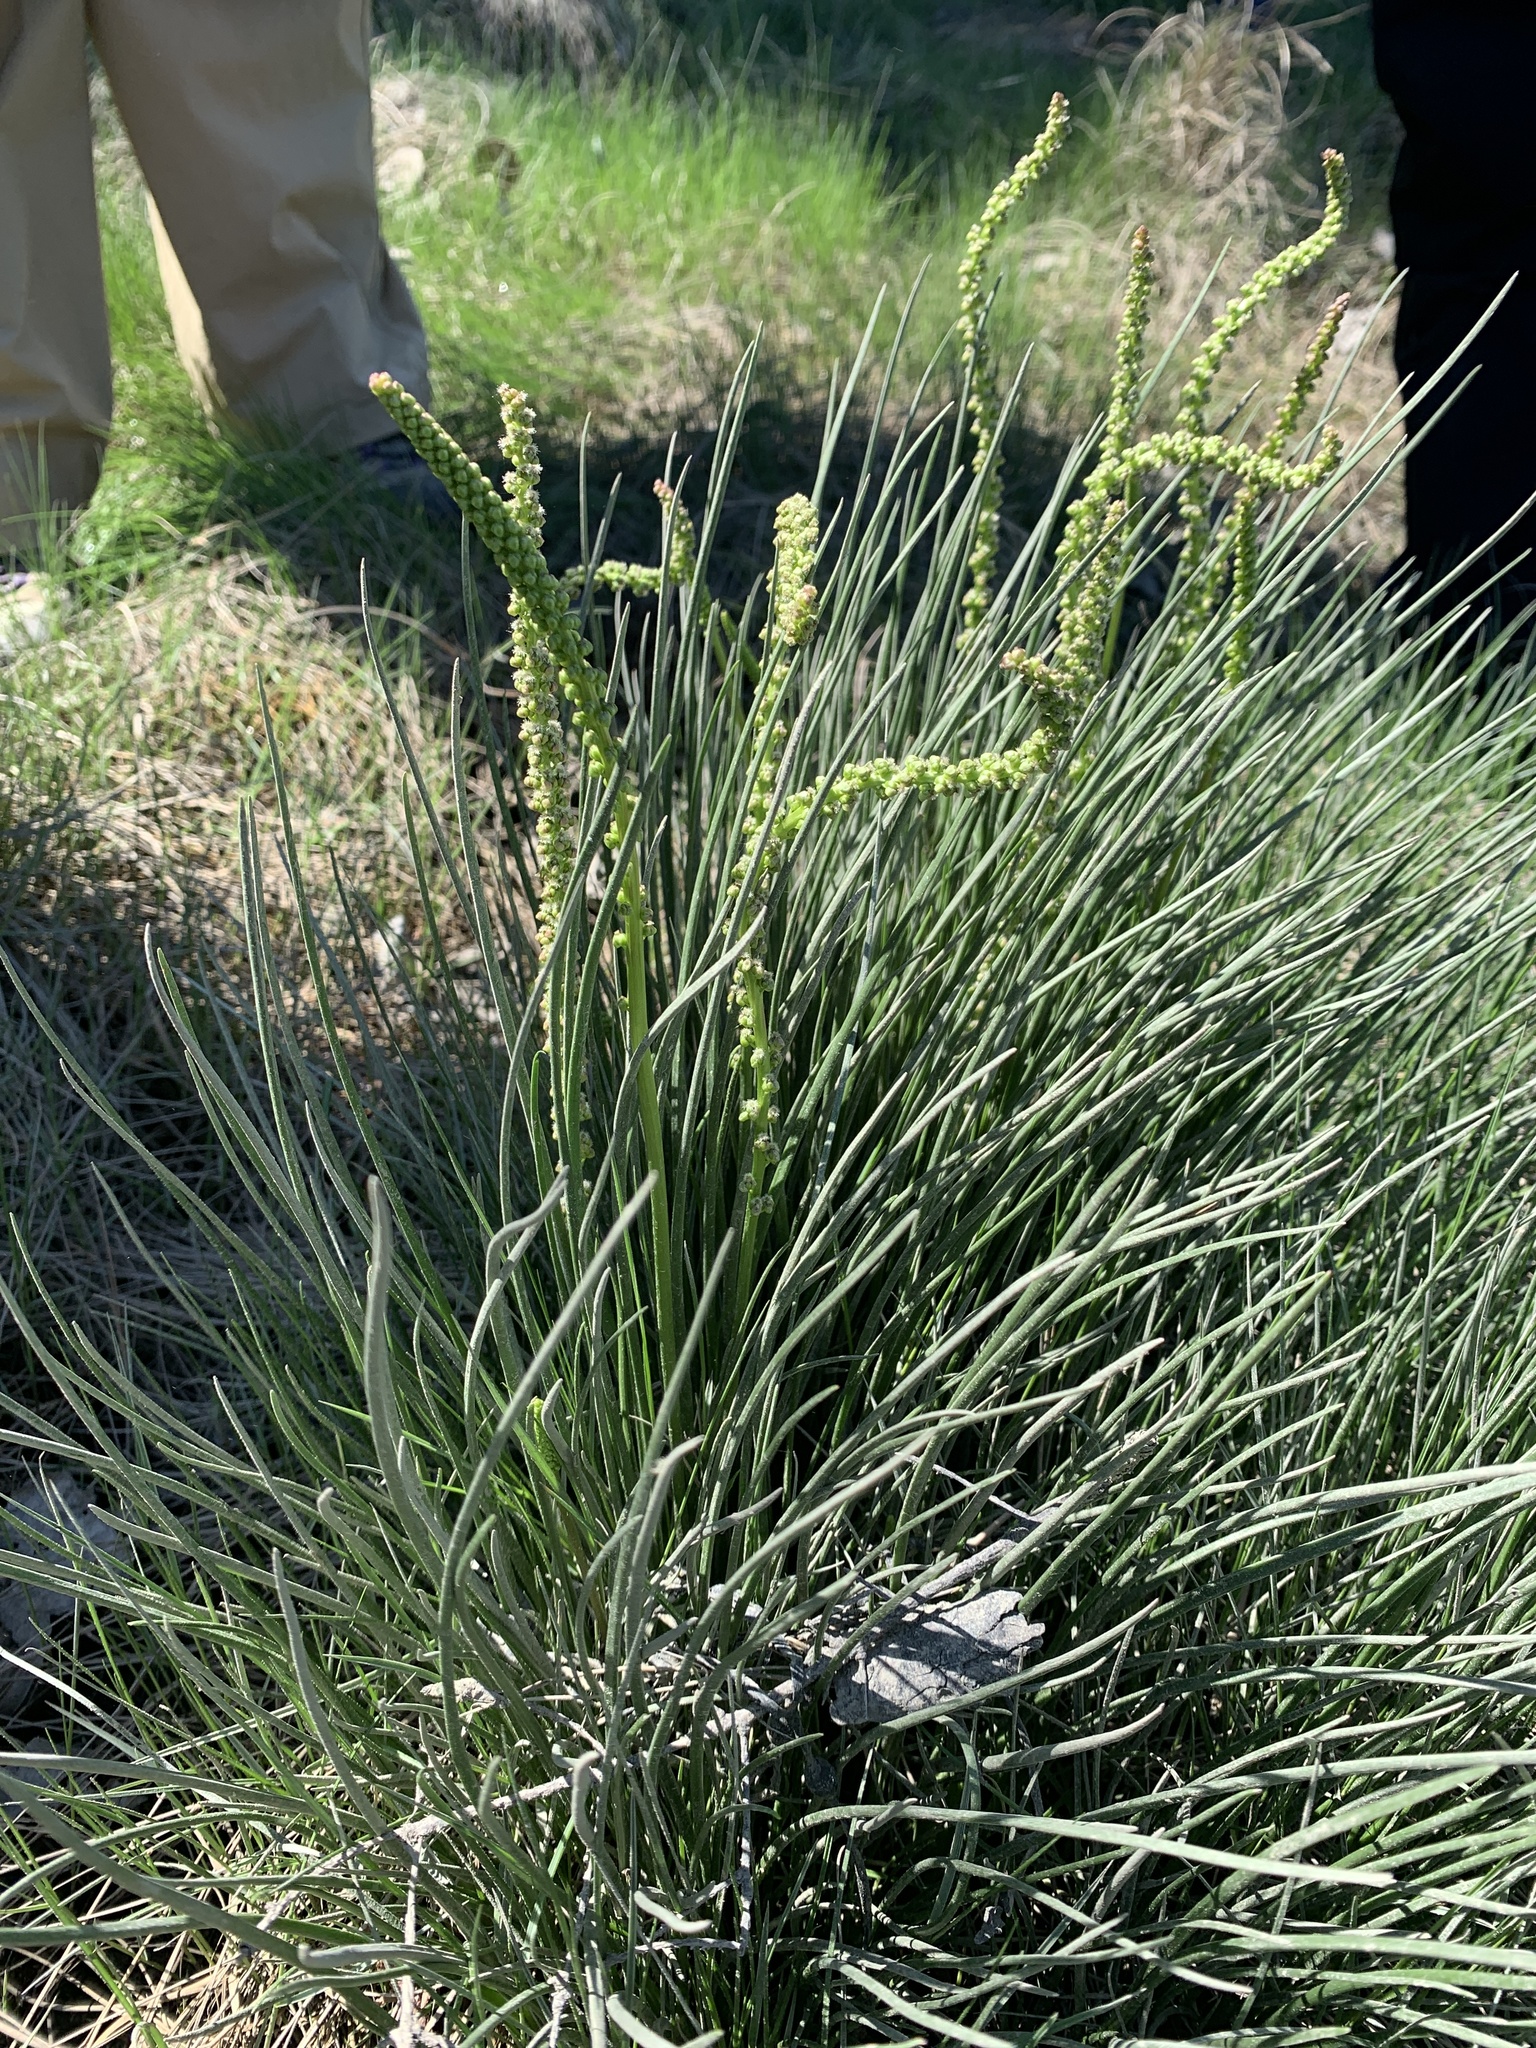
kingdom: Plantae
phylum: Tracheophyta
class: Liliopsida
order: Alismatales
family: Juncaginaceae
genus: Triglochin
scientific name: Triglochin maritima
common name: Sea arrowgrass
